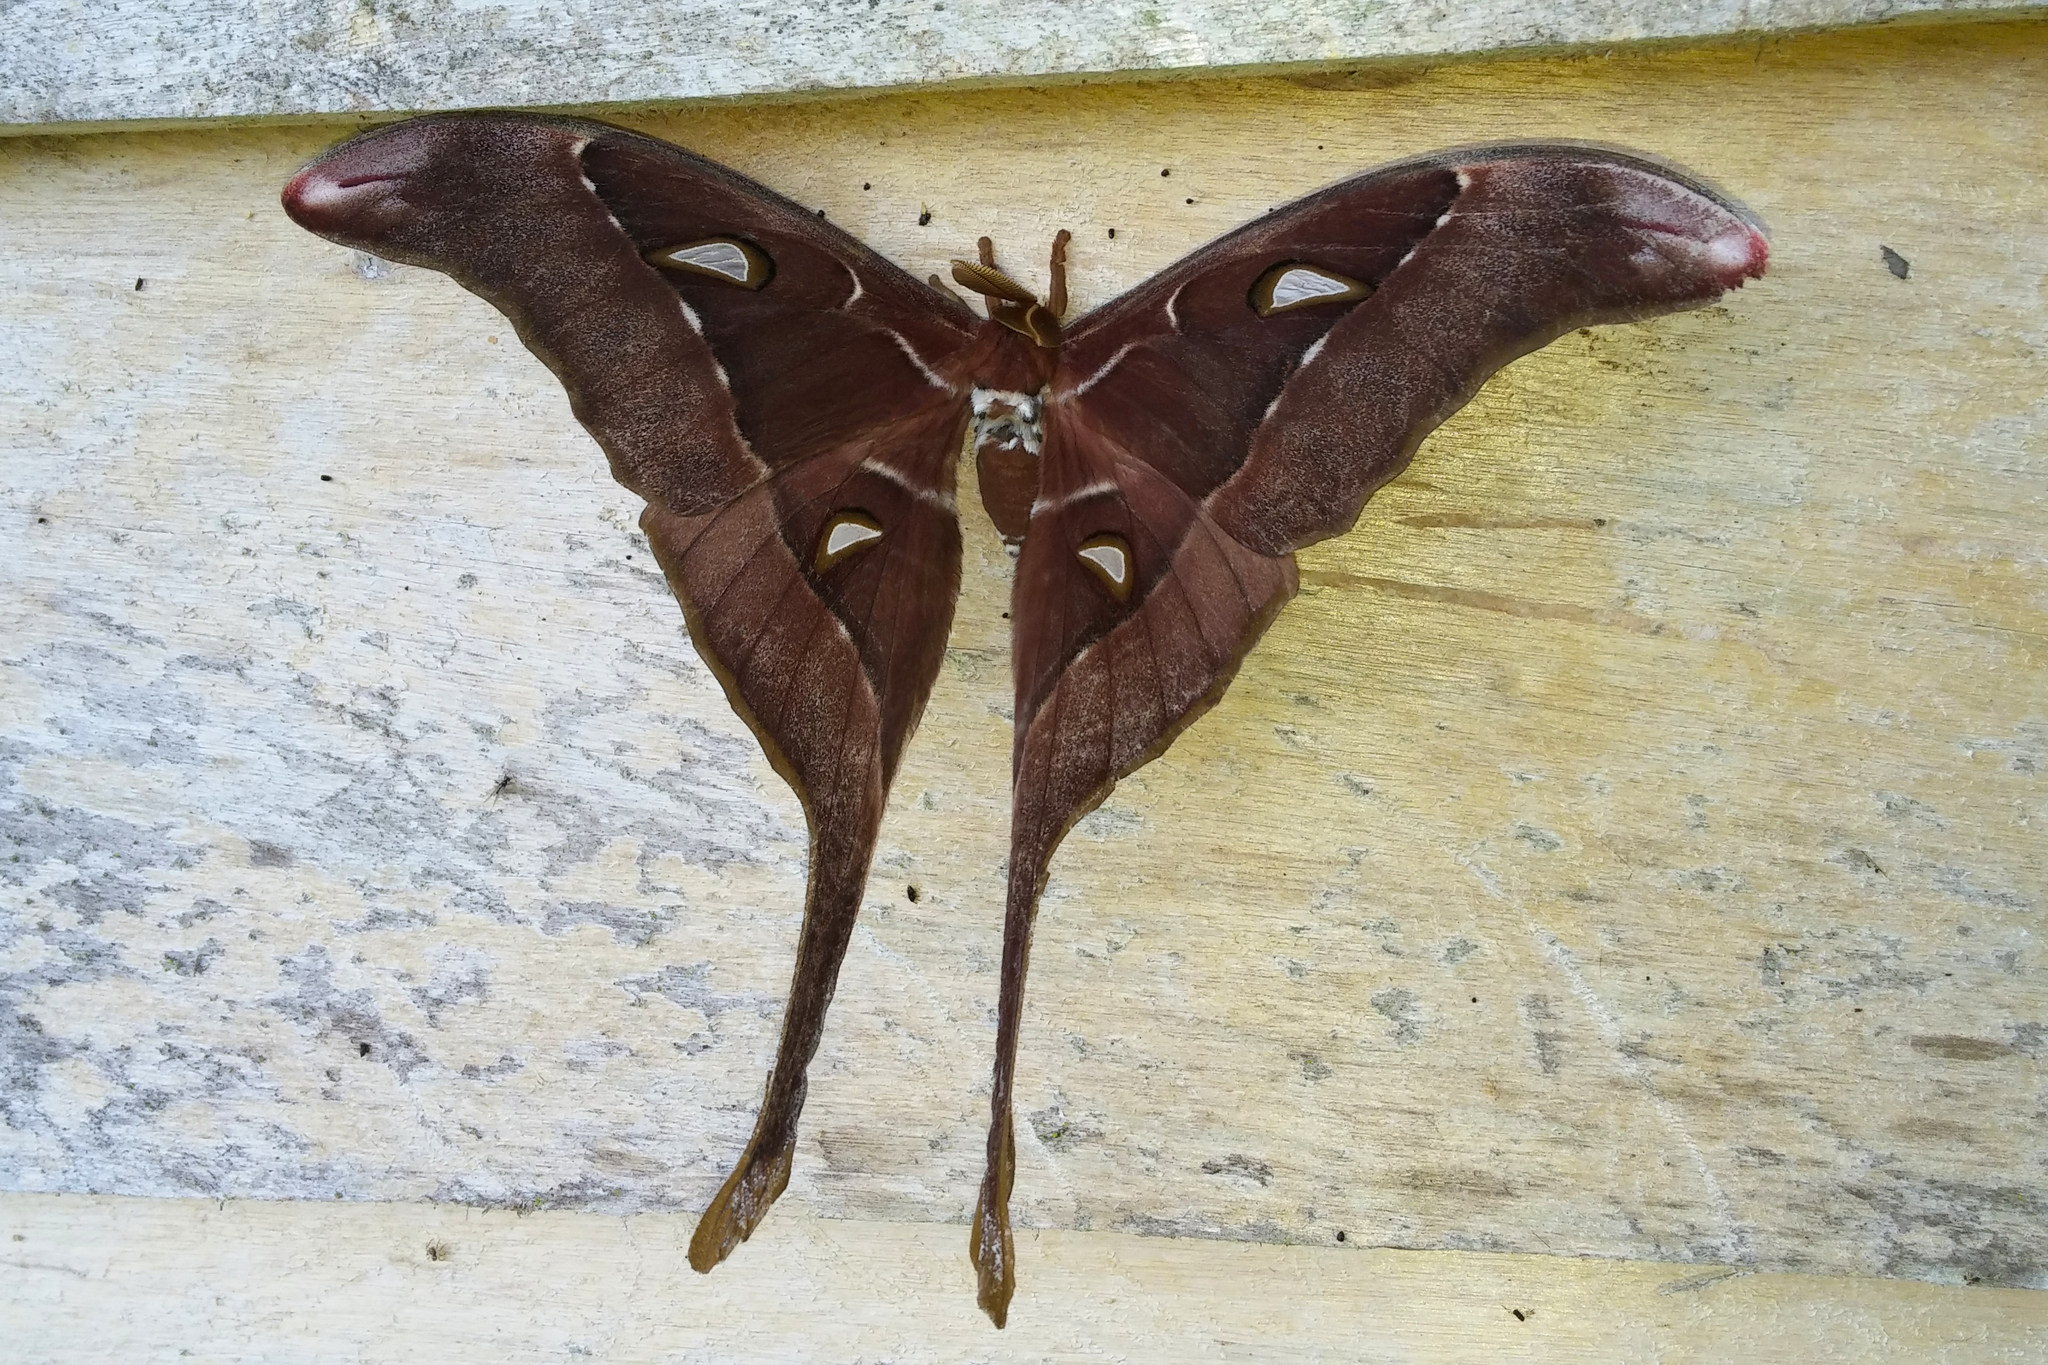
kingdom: Animalia
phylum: Arthropoda
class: Insecta
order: Lepidoptera
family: Saturniidae
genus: Coscinocera
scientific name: Coscinocera eurytheus
